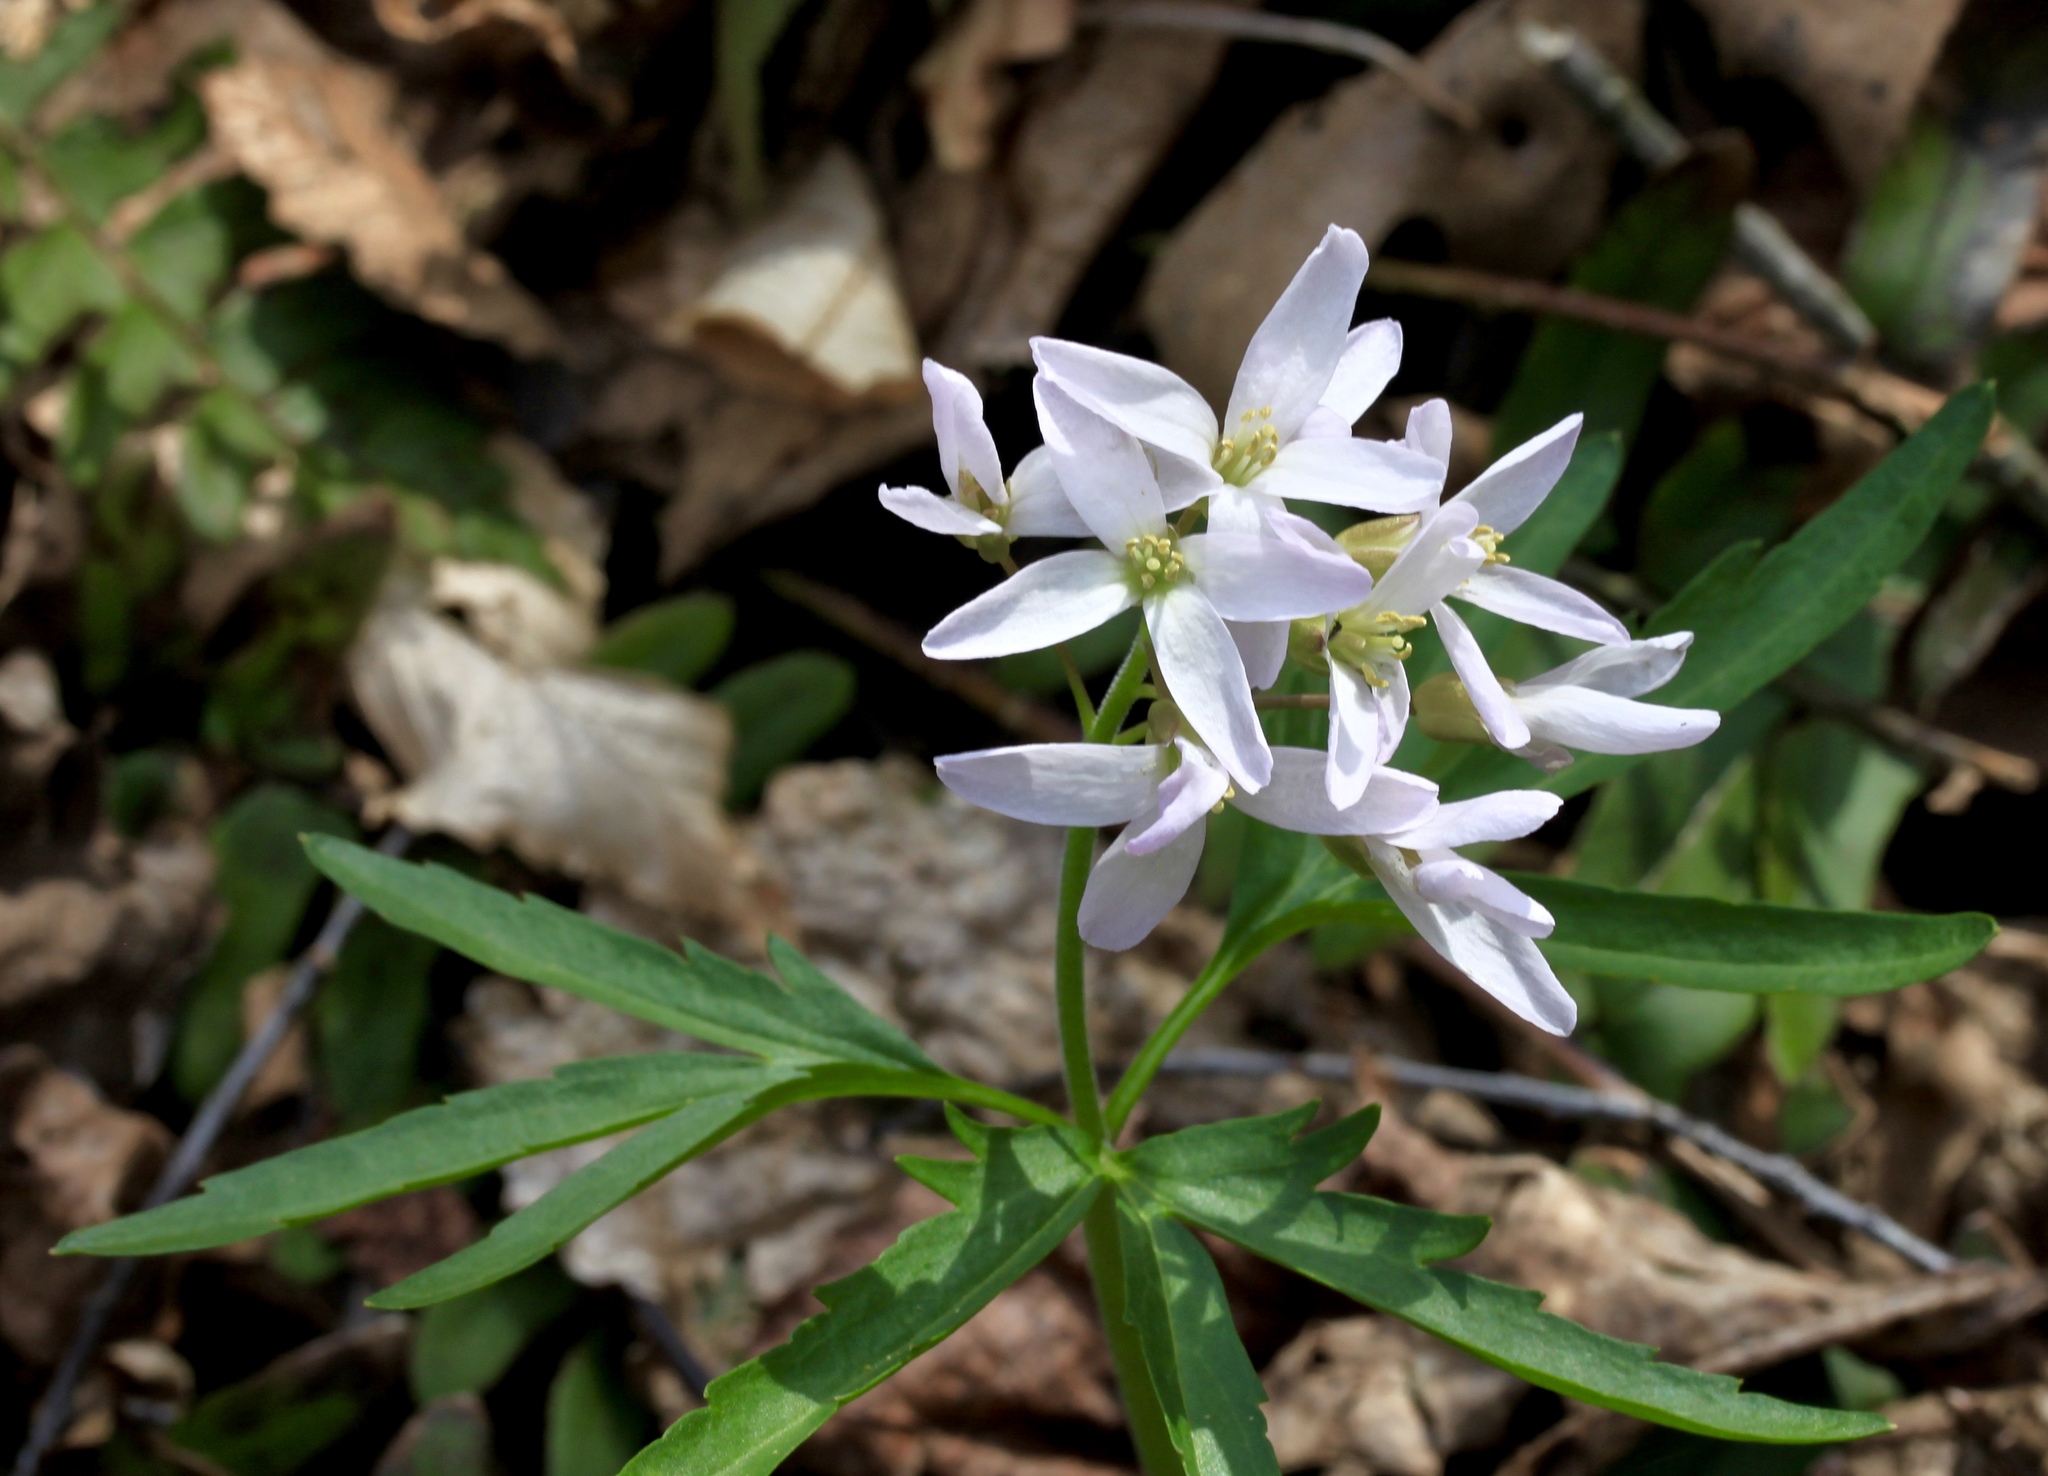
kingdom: Plantae
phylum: Tracheophyta
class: Magnoliopsida
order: Brassicales
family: Brassicaceae
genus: Cardamine
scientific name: Cardamine concatenata
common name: Cut-leaf toothcup
